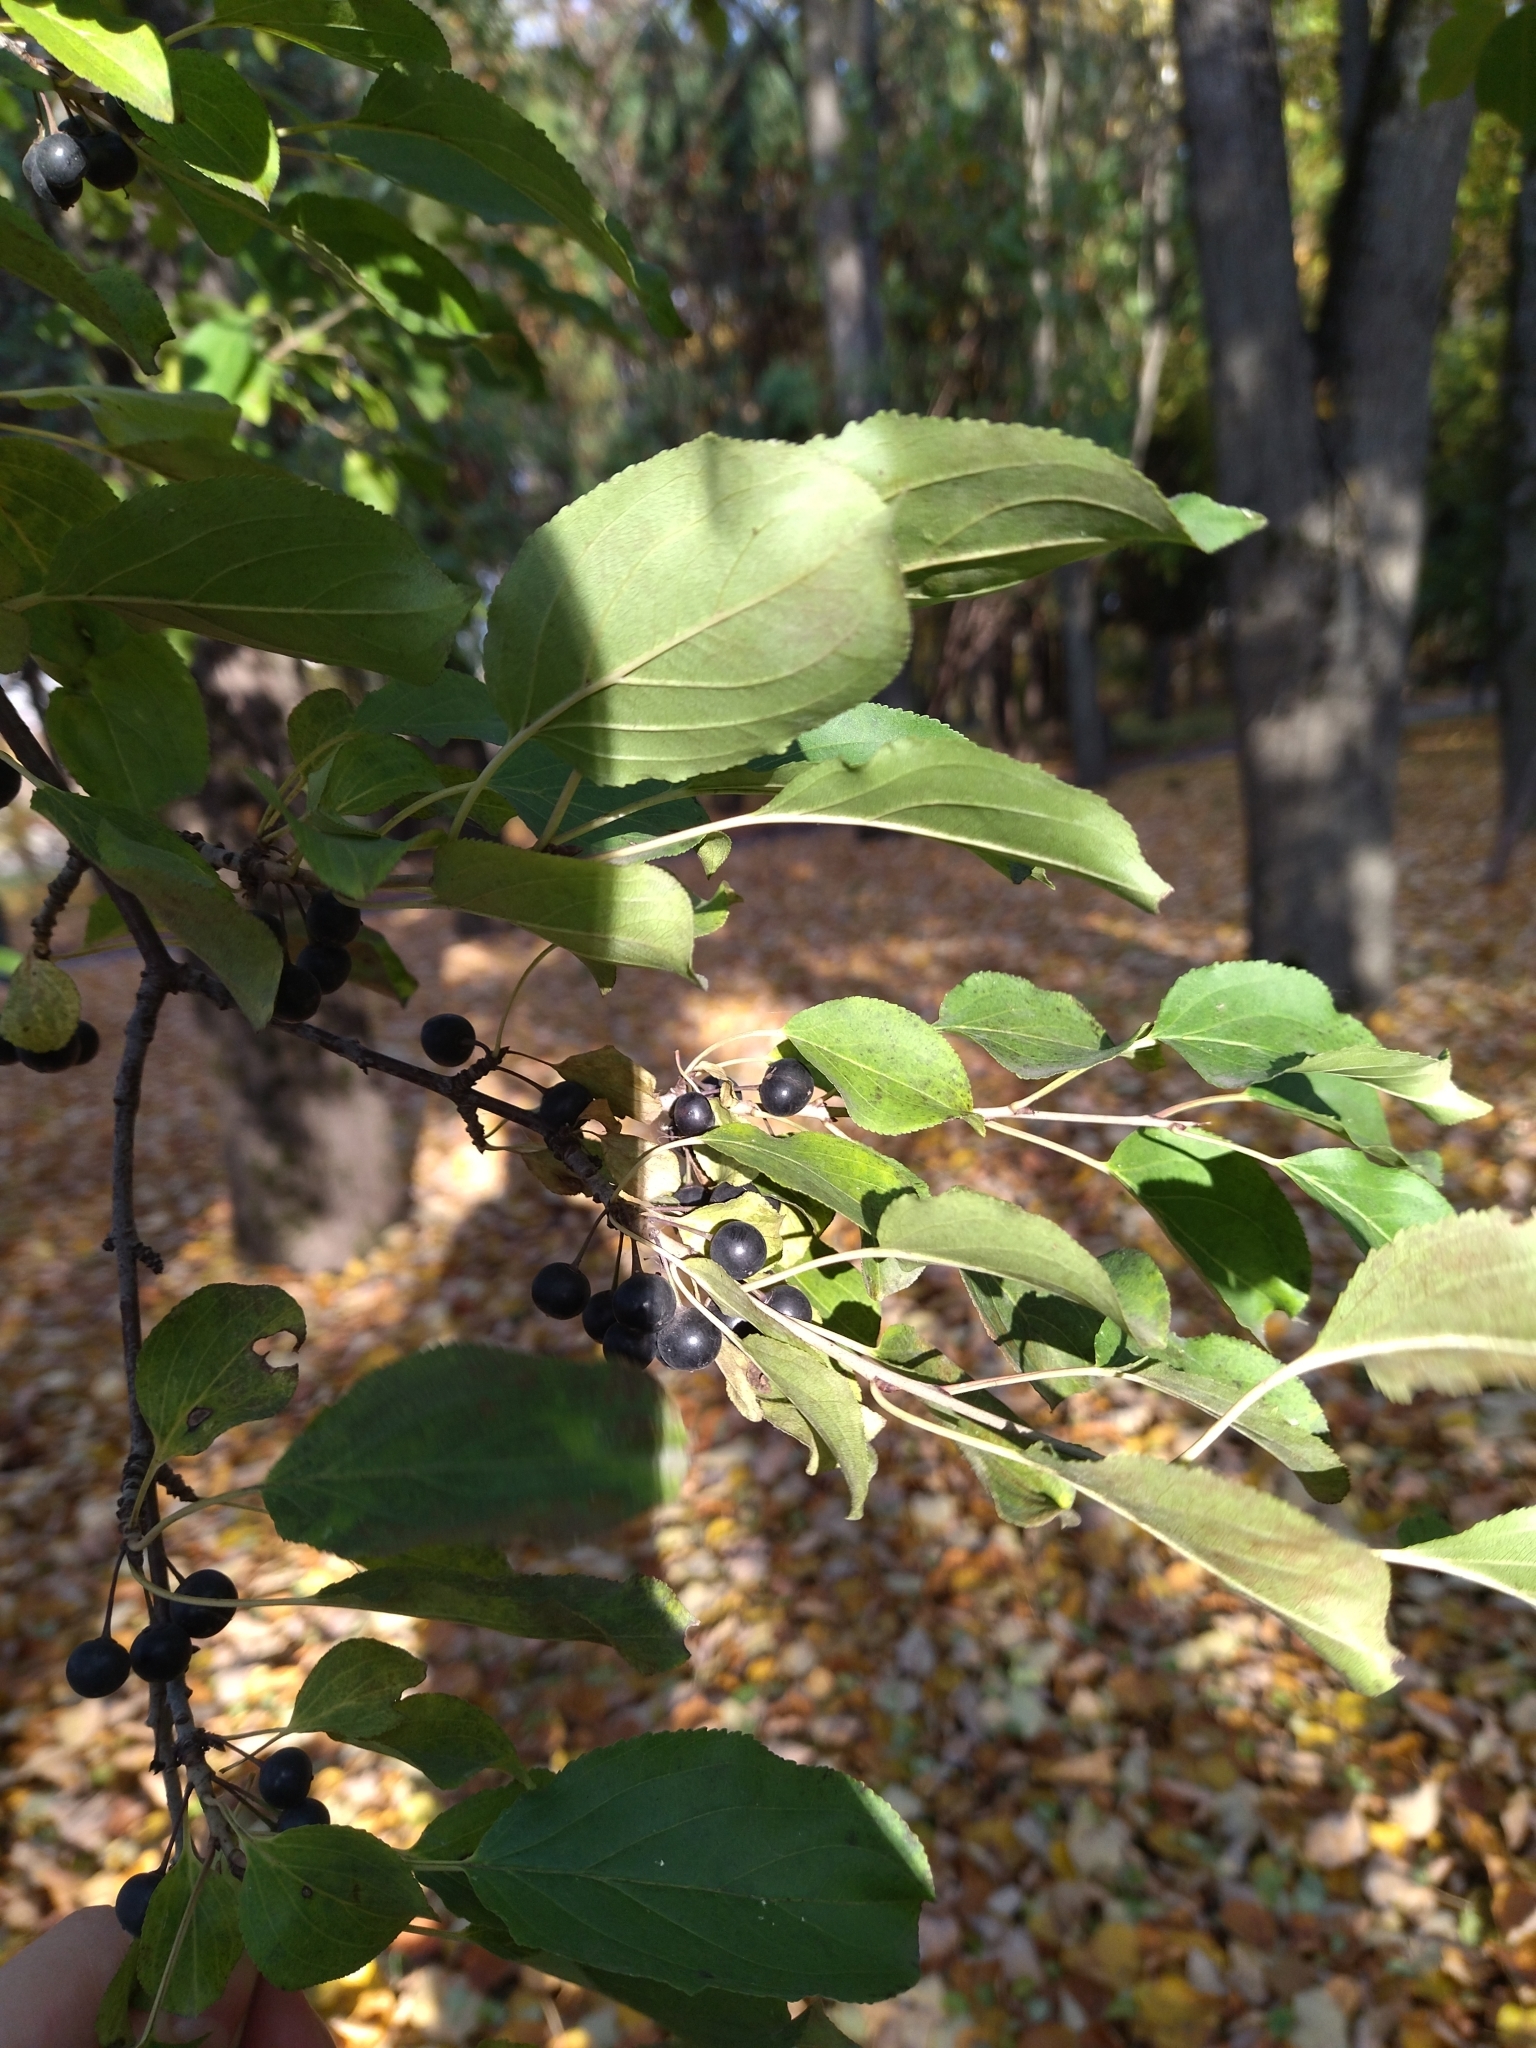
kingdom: Plantae
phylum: Tracheophyta
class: Magnoliopsida
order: Rosales
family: Rhamnaceae
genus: Rhamnus
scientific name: Rhamnus cathartica
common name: Common buckthorn
